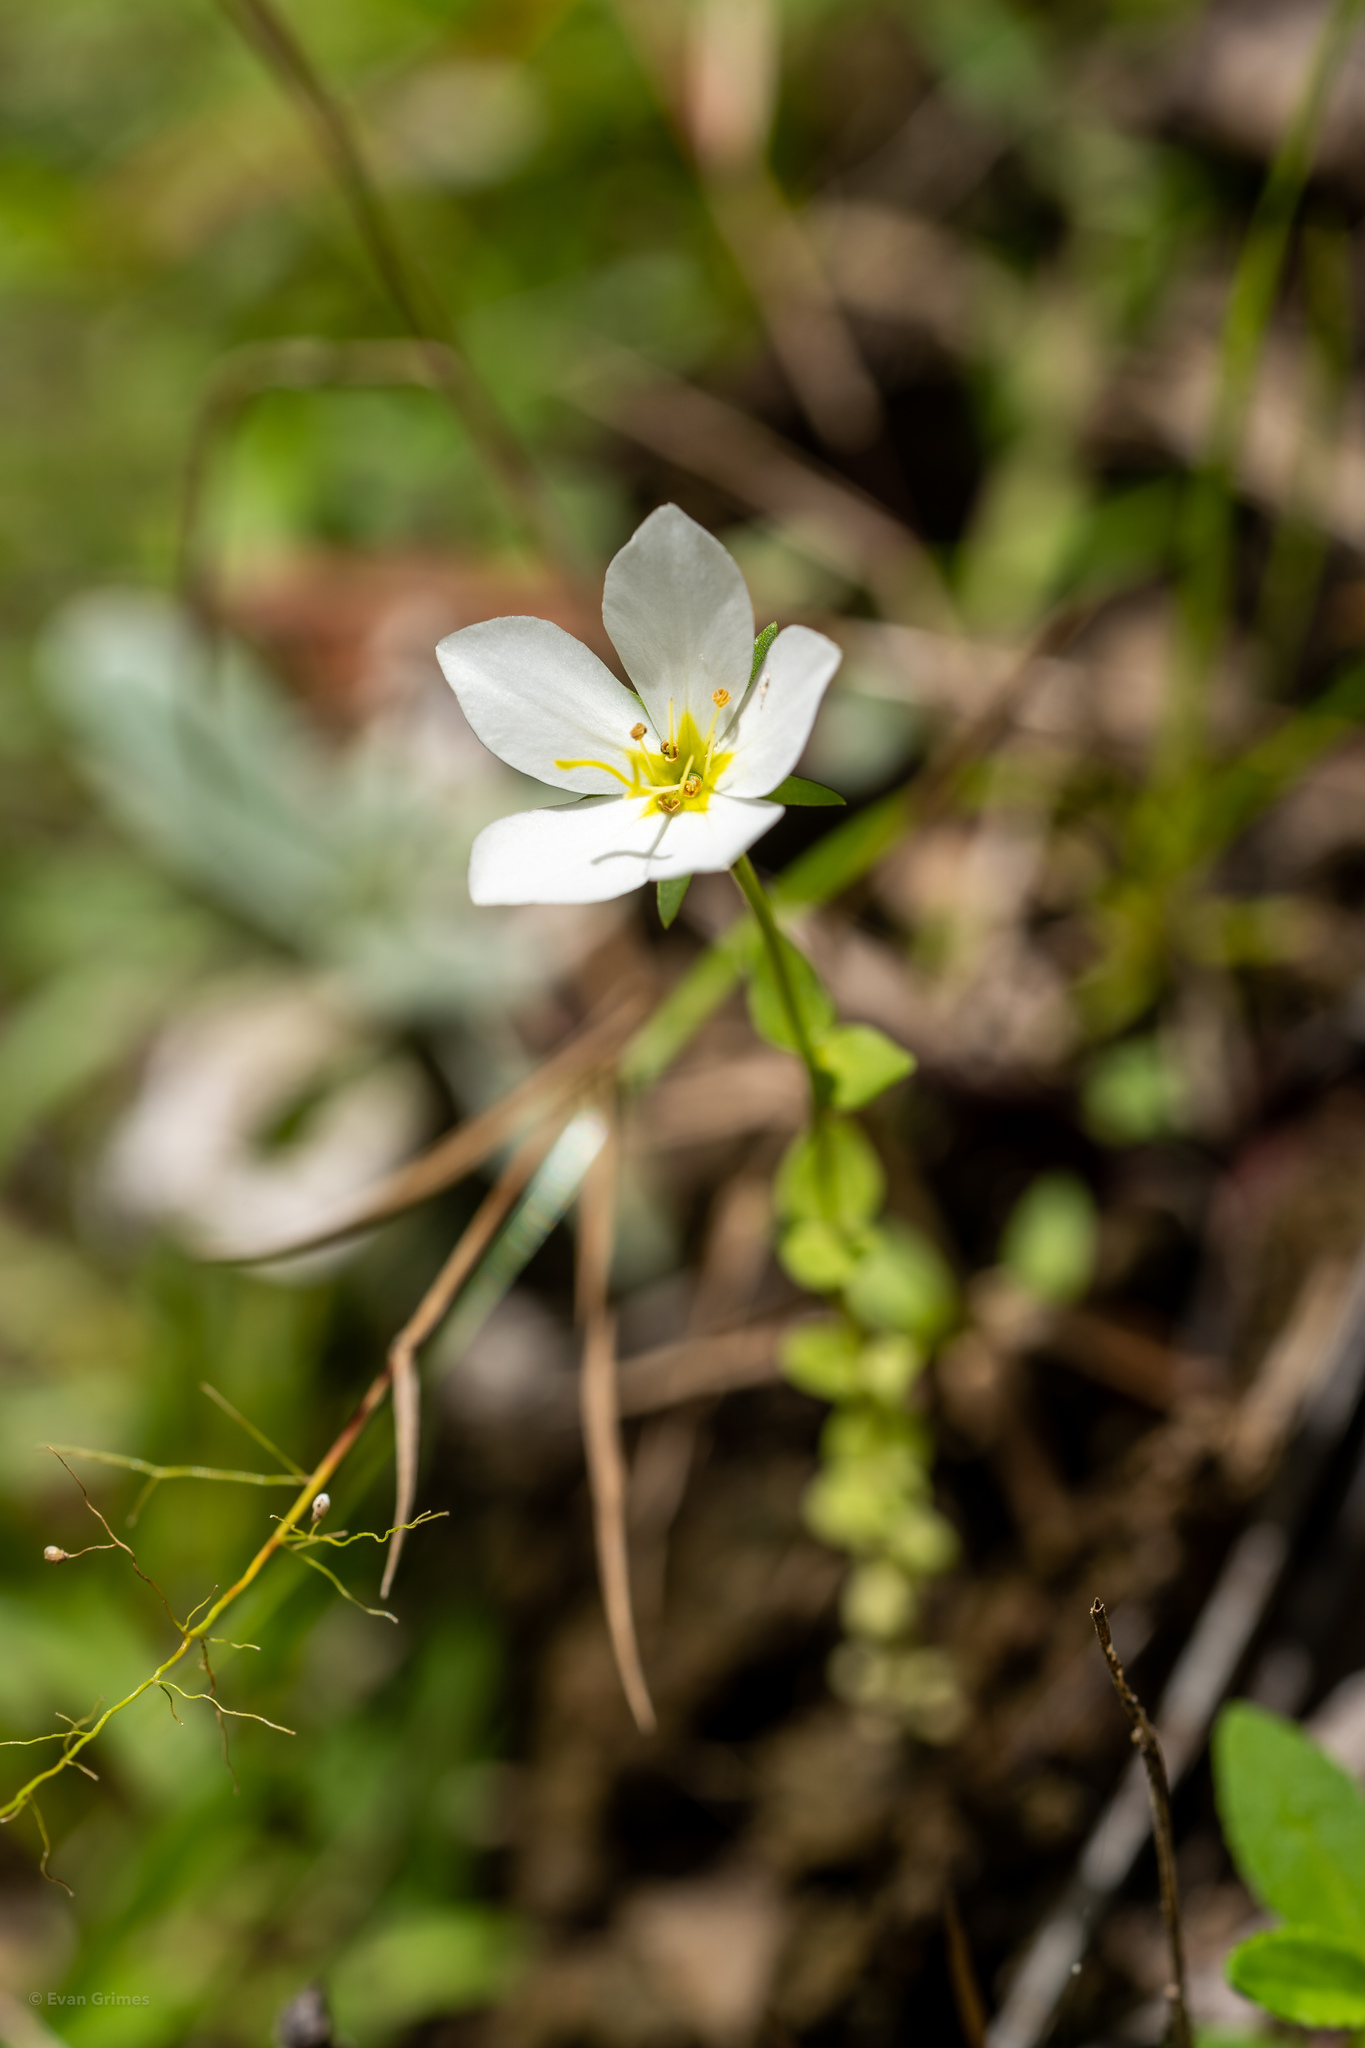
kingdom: Plantae
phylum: Tracheophyta
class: Magnoliopsida
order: Gentianales
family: Gentianaceae
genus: Sabatia
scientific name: Sabatia campestris
